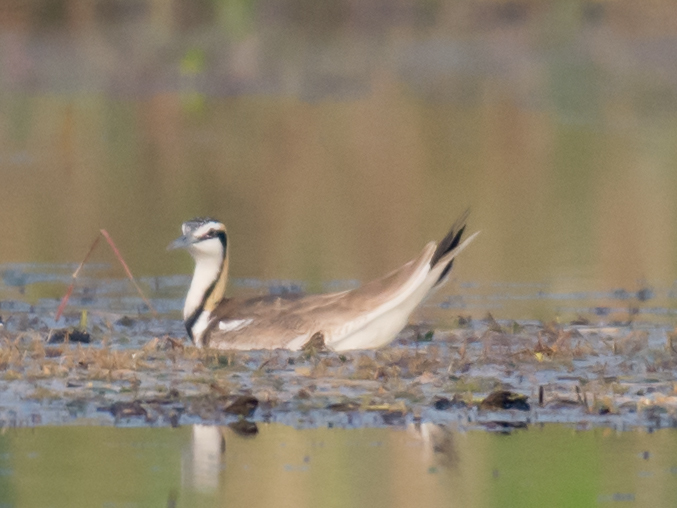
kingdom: Animalia
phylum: Chordata
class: Aves
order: Charadriiformes
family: Jacanidae
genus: Hydrophasianus
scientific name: Hydrophasianus chirurgus
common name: Pheasant-tailed jacana
